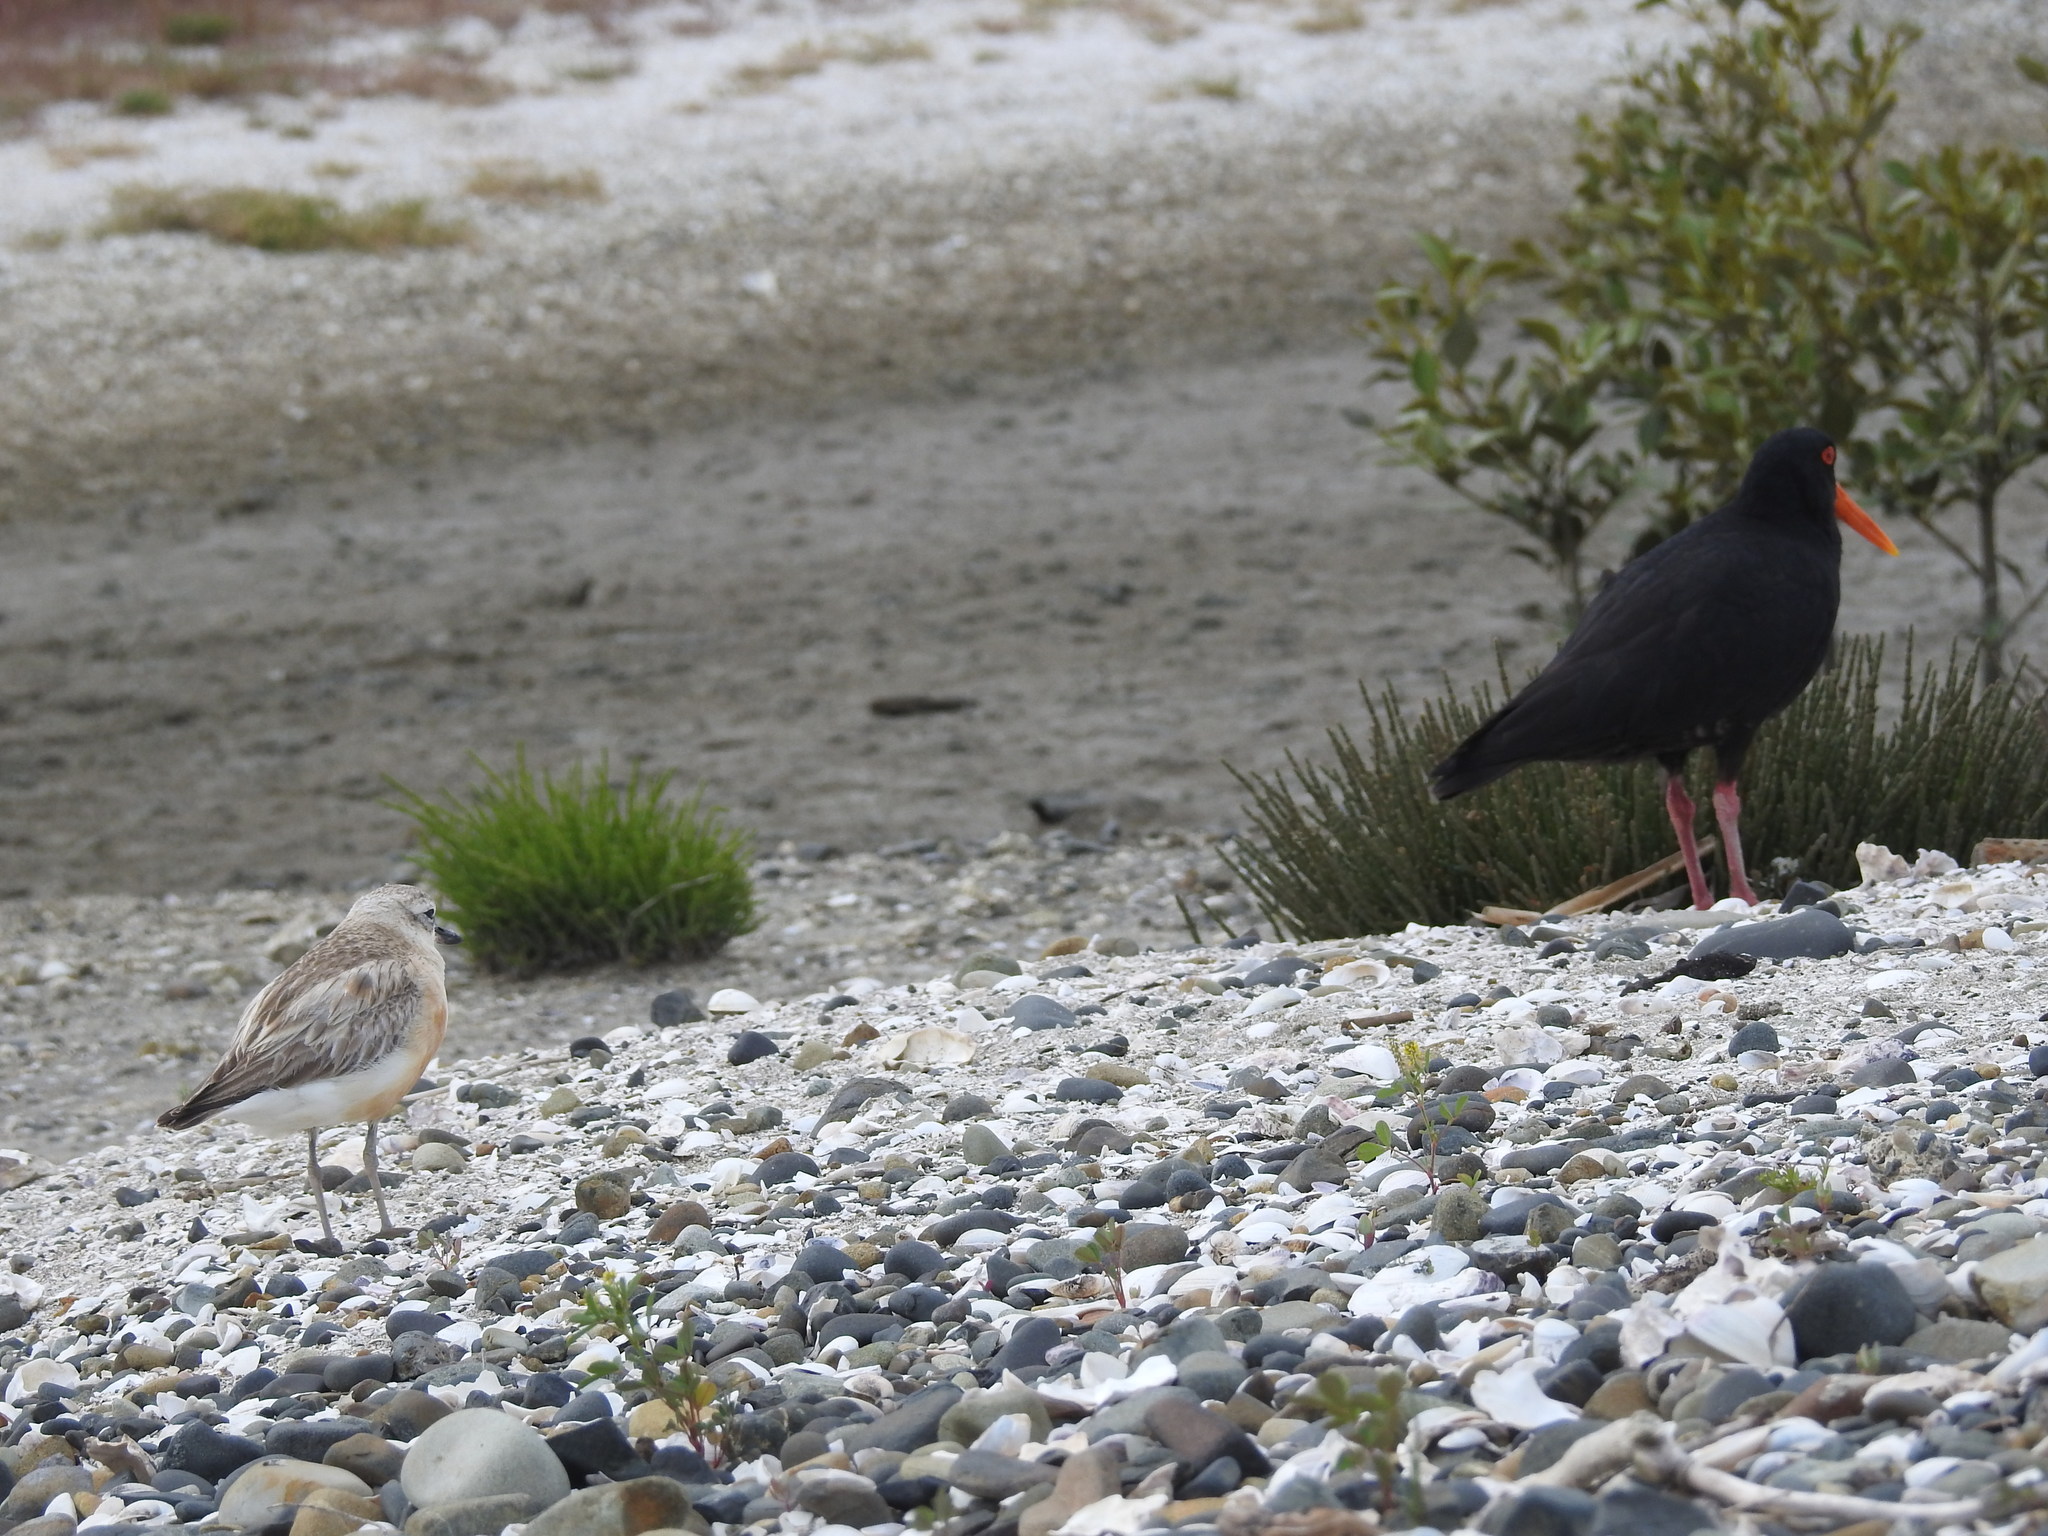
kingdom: Animalia
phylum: Chordata
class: Aves
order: Charadriiformes
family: Charadriidae
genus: Anarhynchus
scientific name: Anarhynchus
